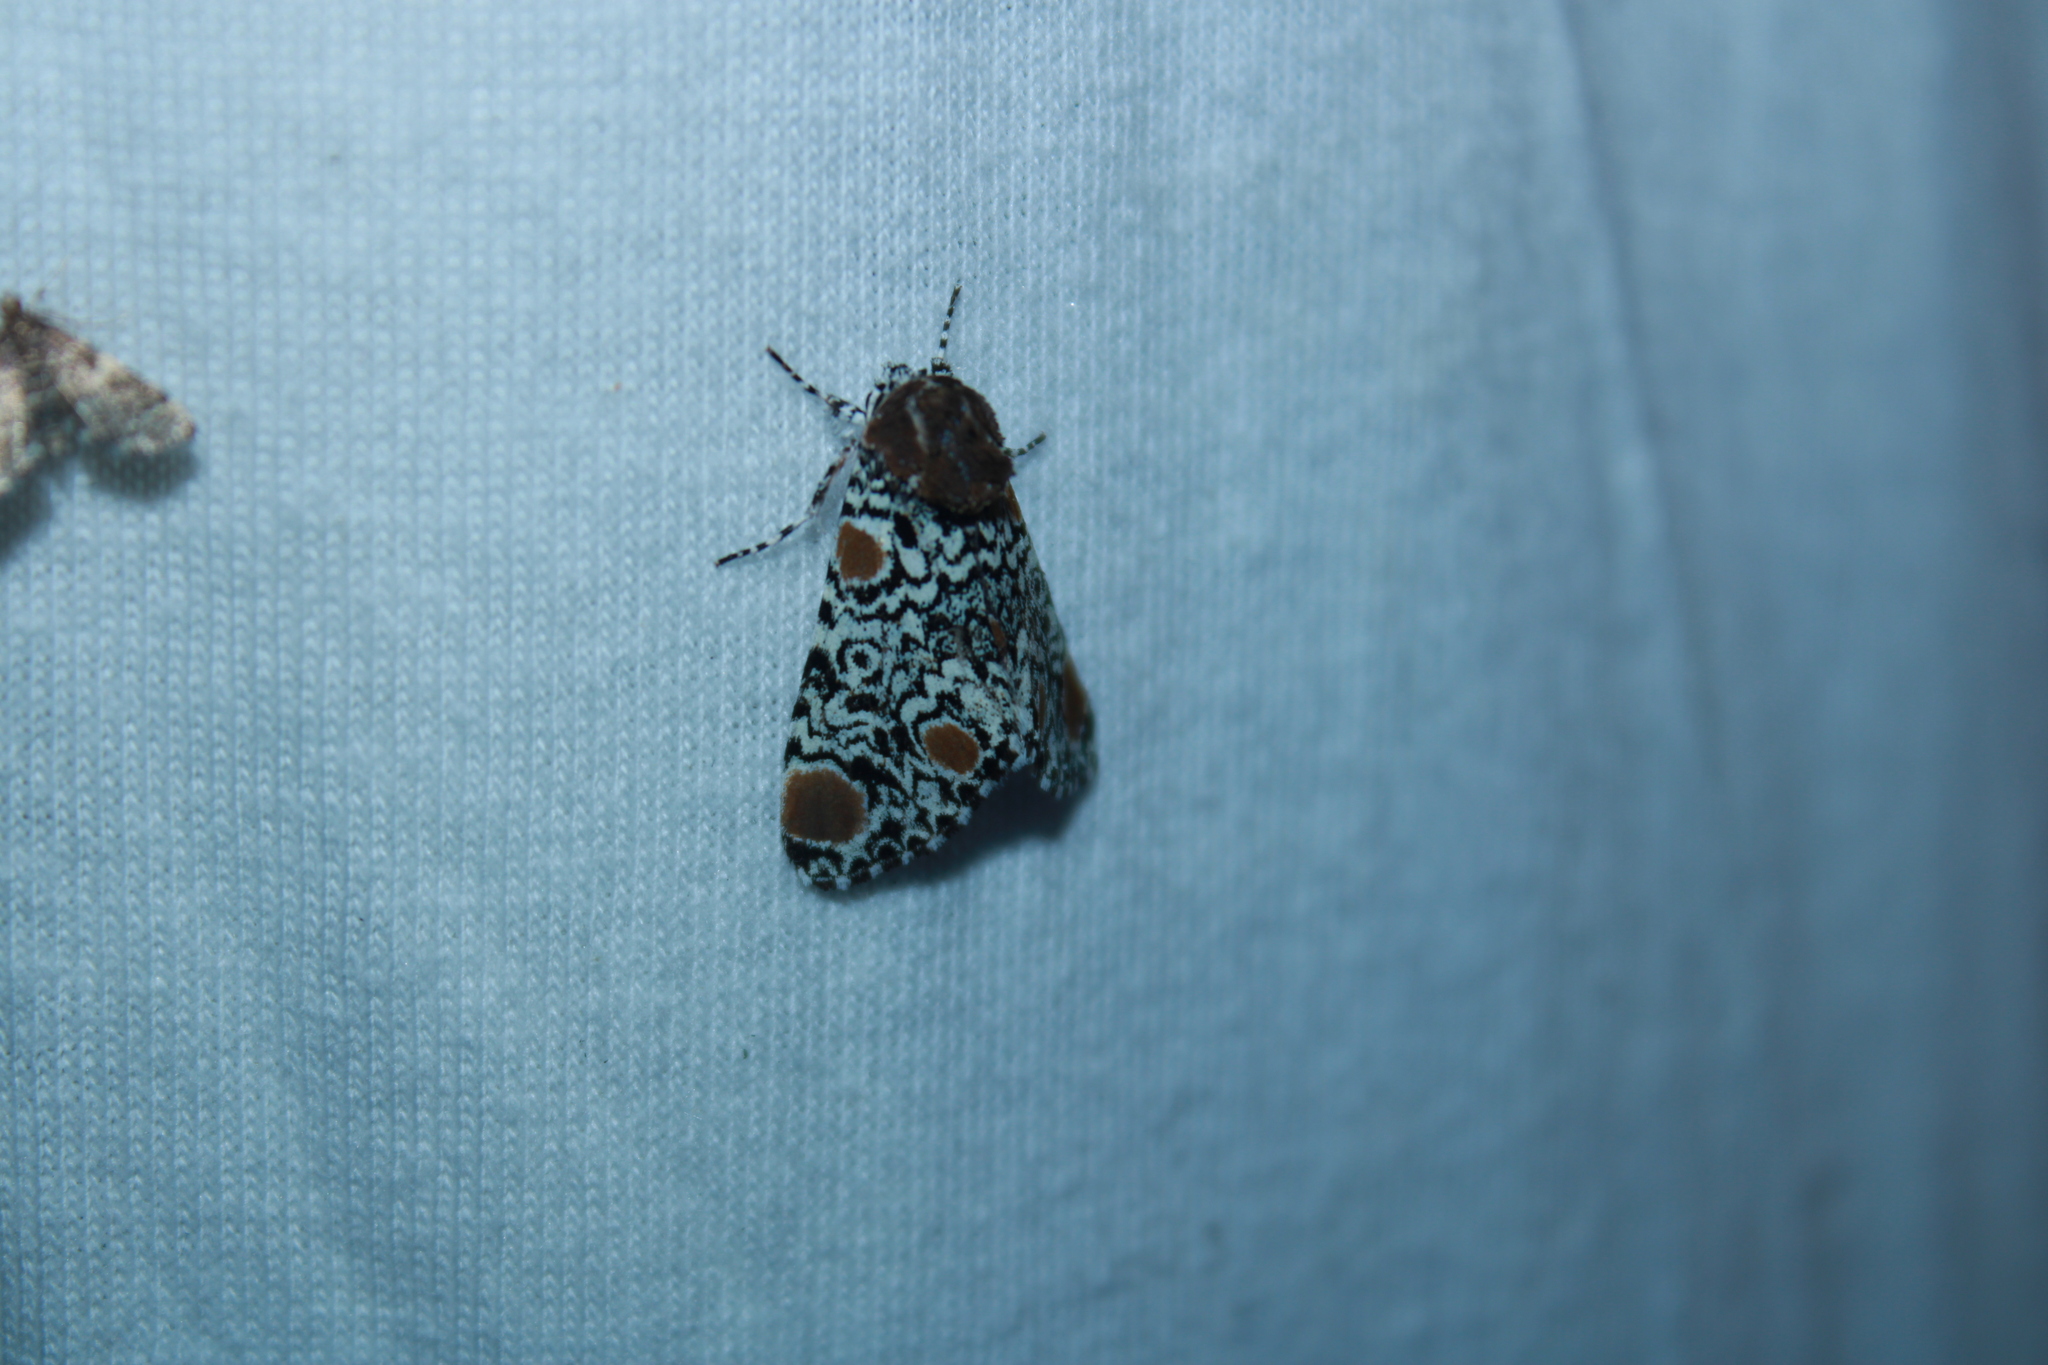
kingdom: Animalia
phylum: Arthropoda
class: Insecta
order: Lepidoptera
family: Noctuidae
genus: Harrisimemna
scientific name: Harrisimemna trisignata
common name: Harris threespot
